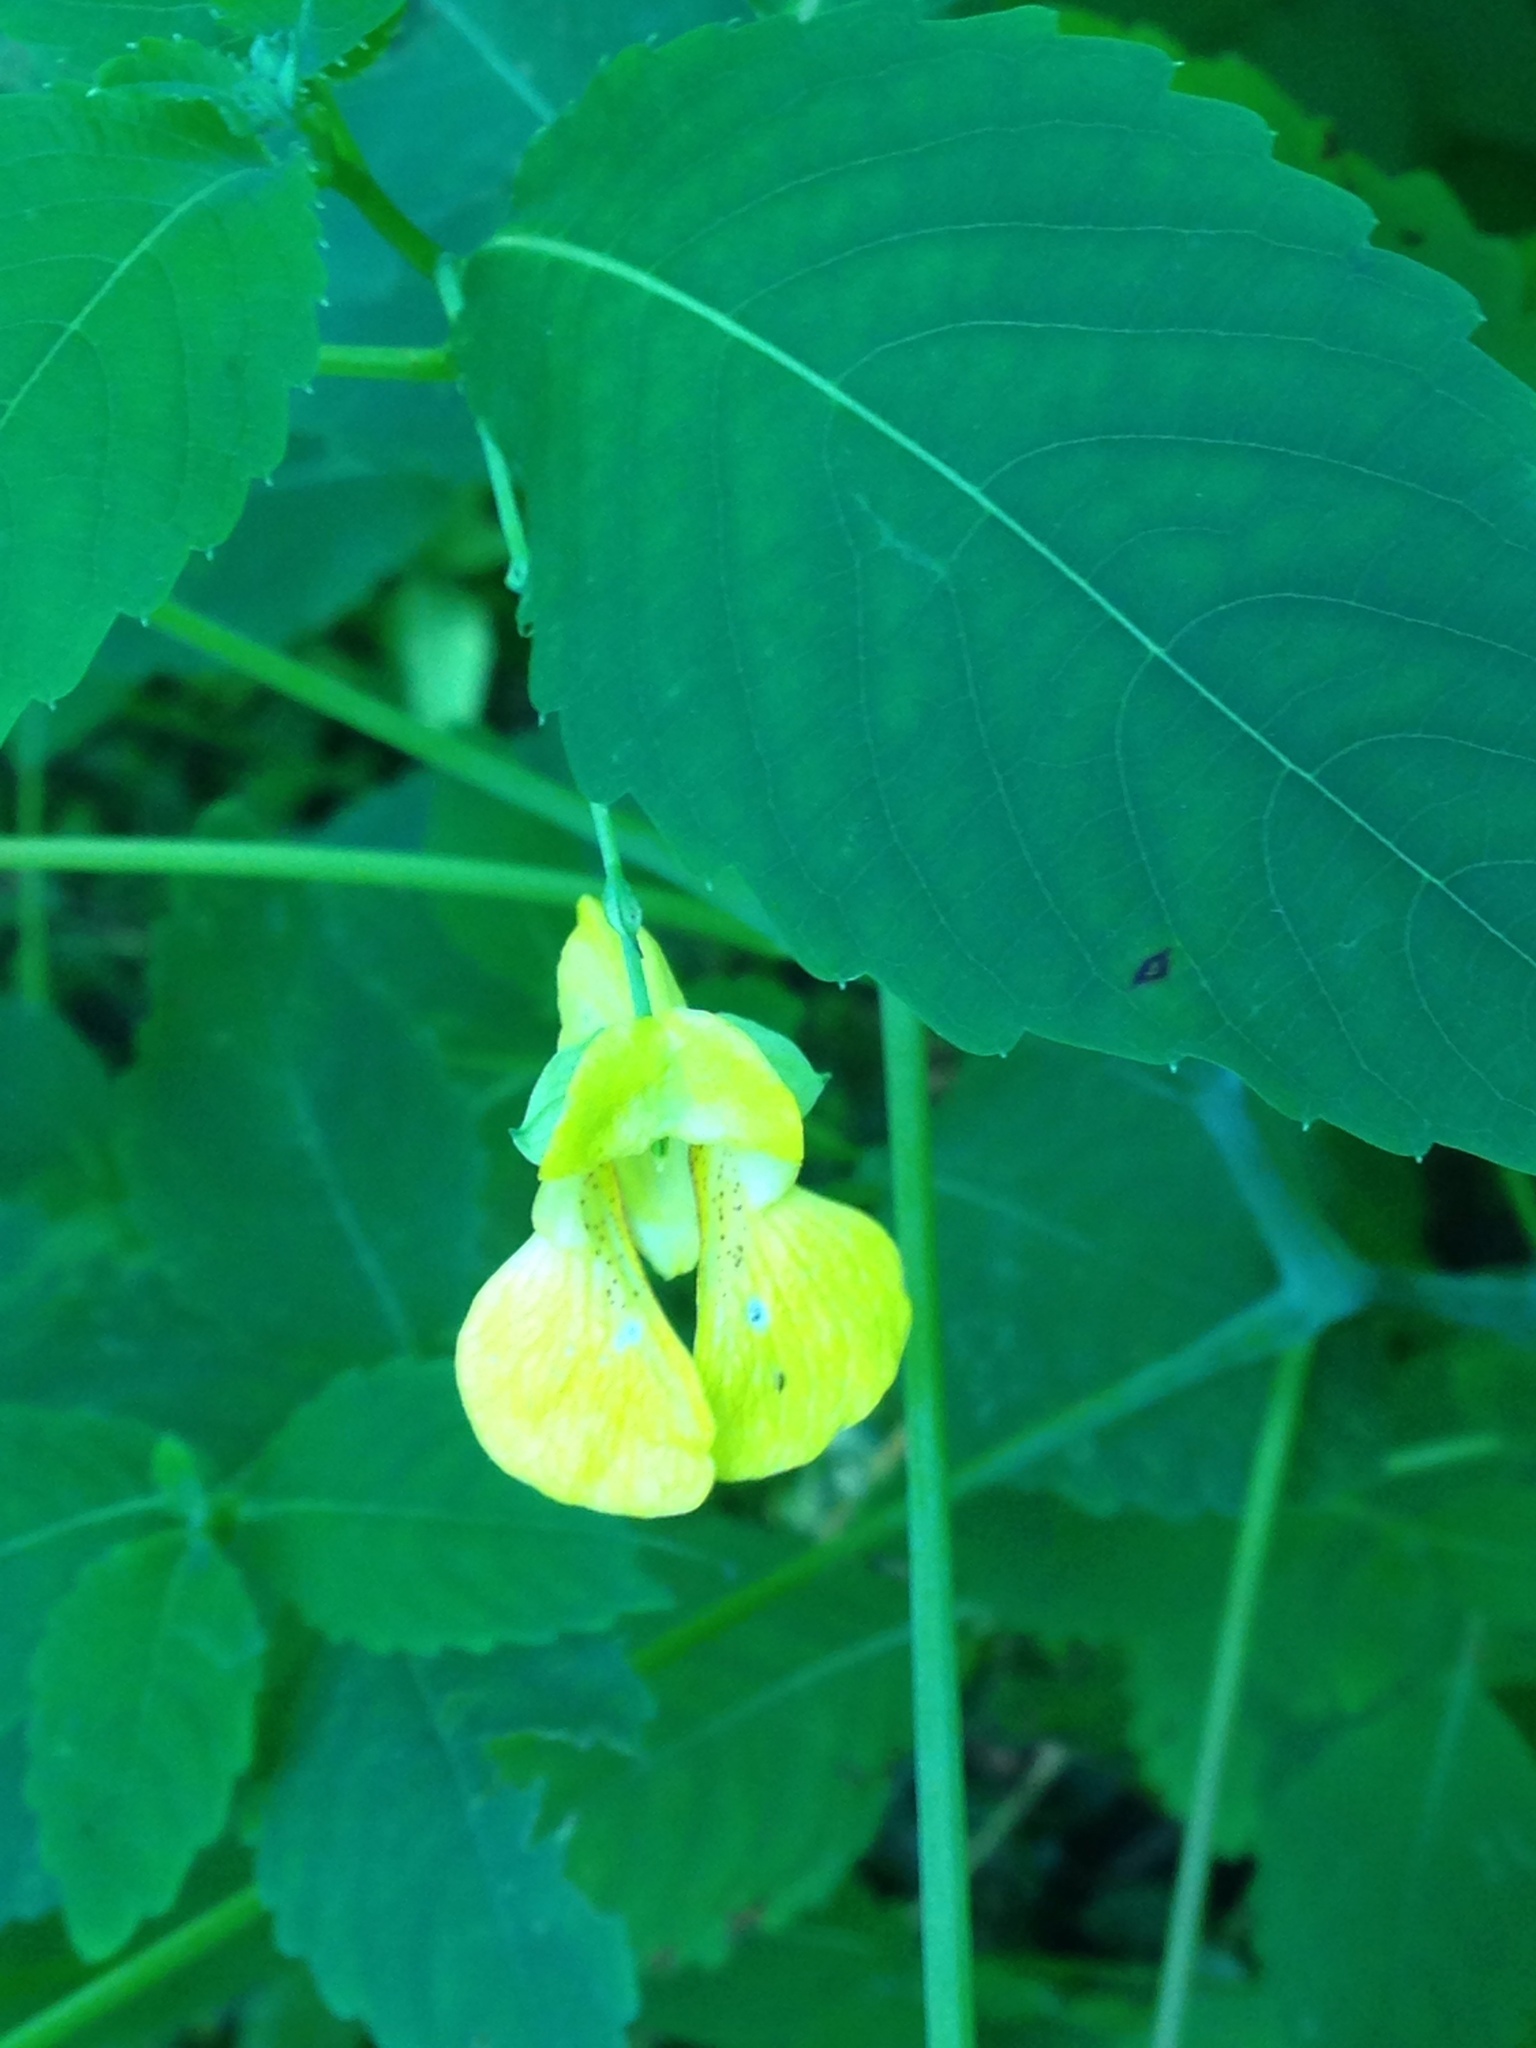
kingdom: Plantae
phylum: Tracheophyta
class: Magnoliopsida
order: Ericales
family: Balsaminaceae
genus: Impatiens
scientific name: Impatiens pallida
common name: Pale snapweed
